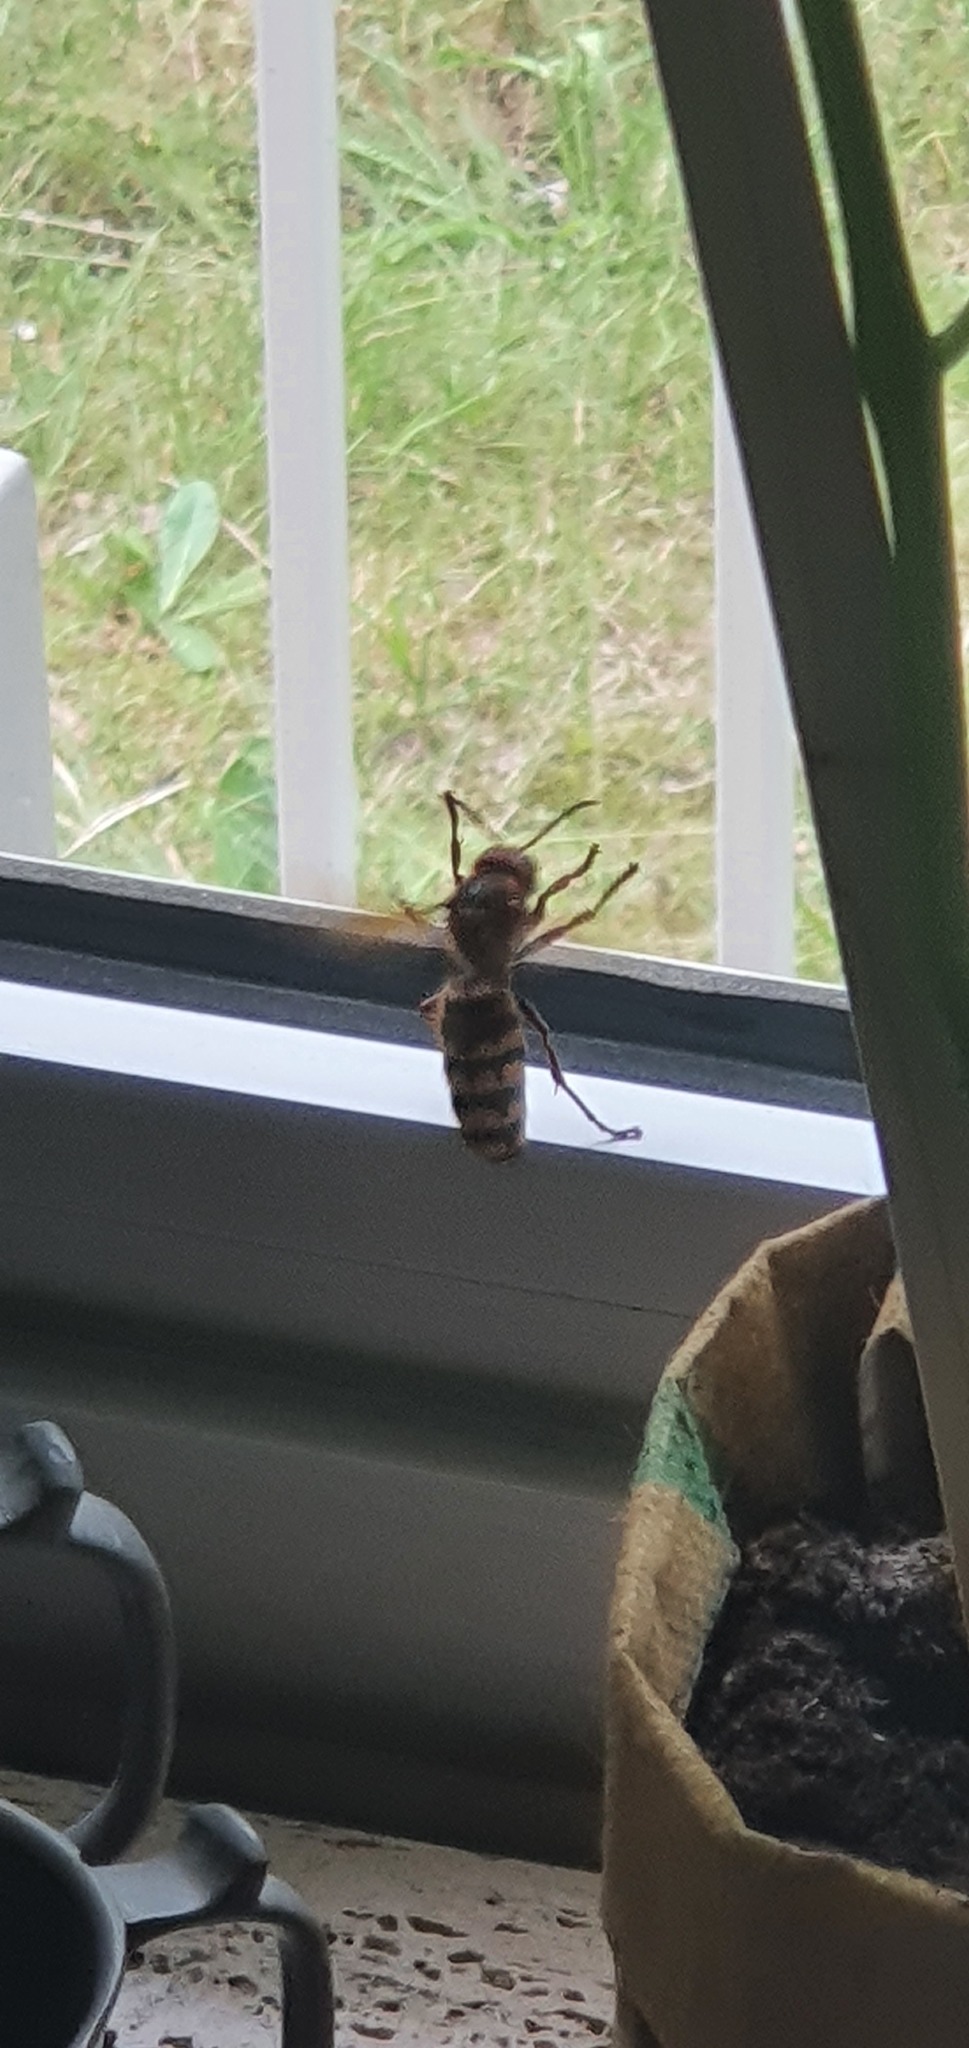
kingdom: Animalia
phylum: Arthropoda
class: Insecta
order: Hymenoptera
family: Vespidae
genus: Vespa
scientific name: Vespa crabro
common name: Hornet
